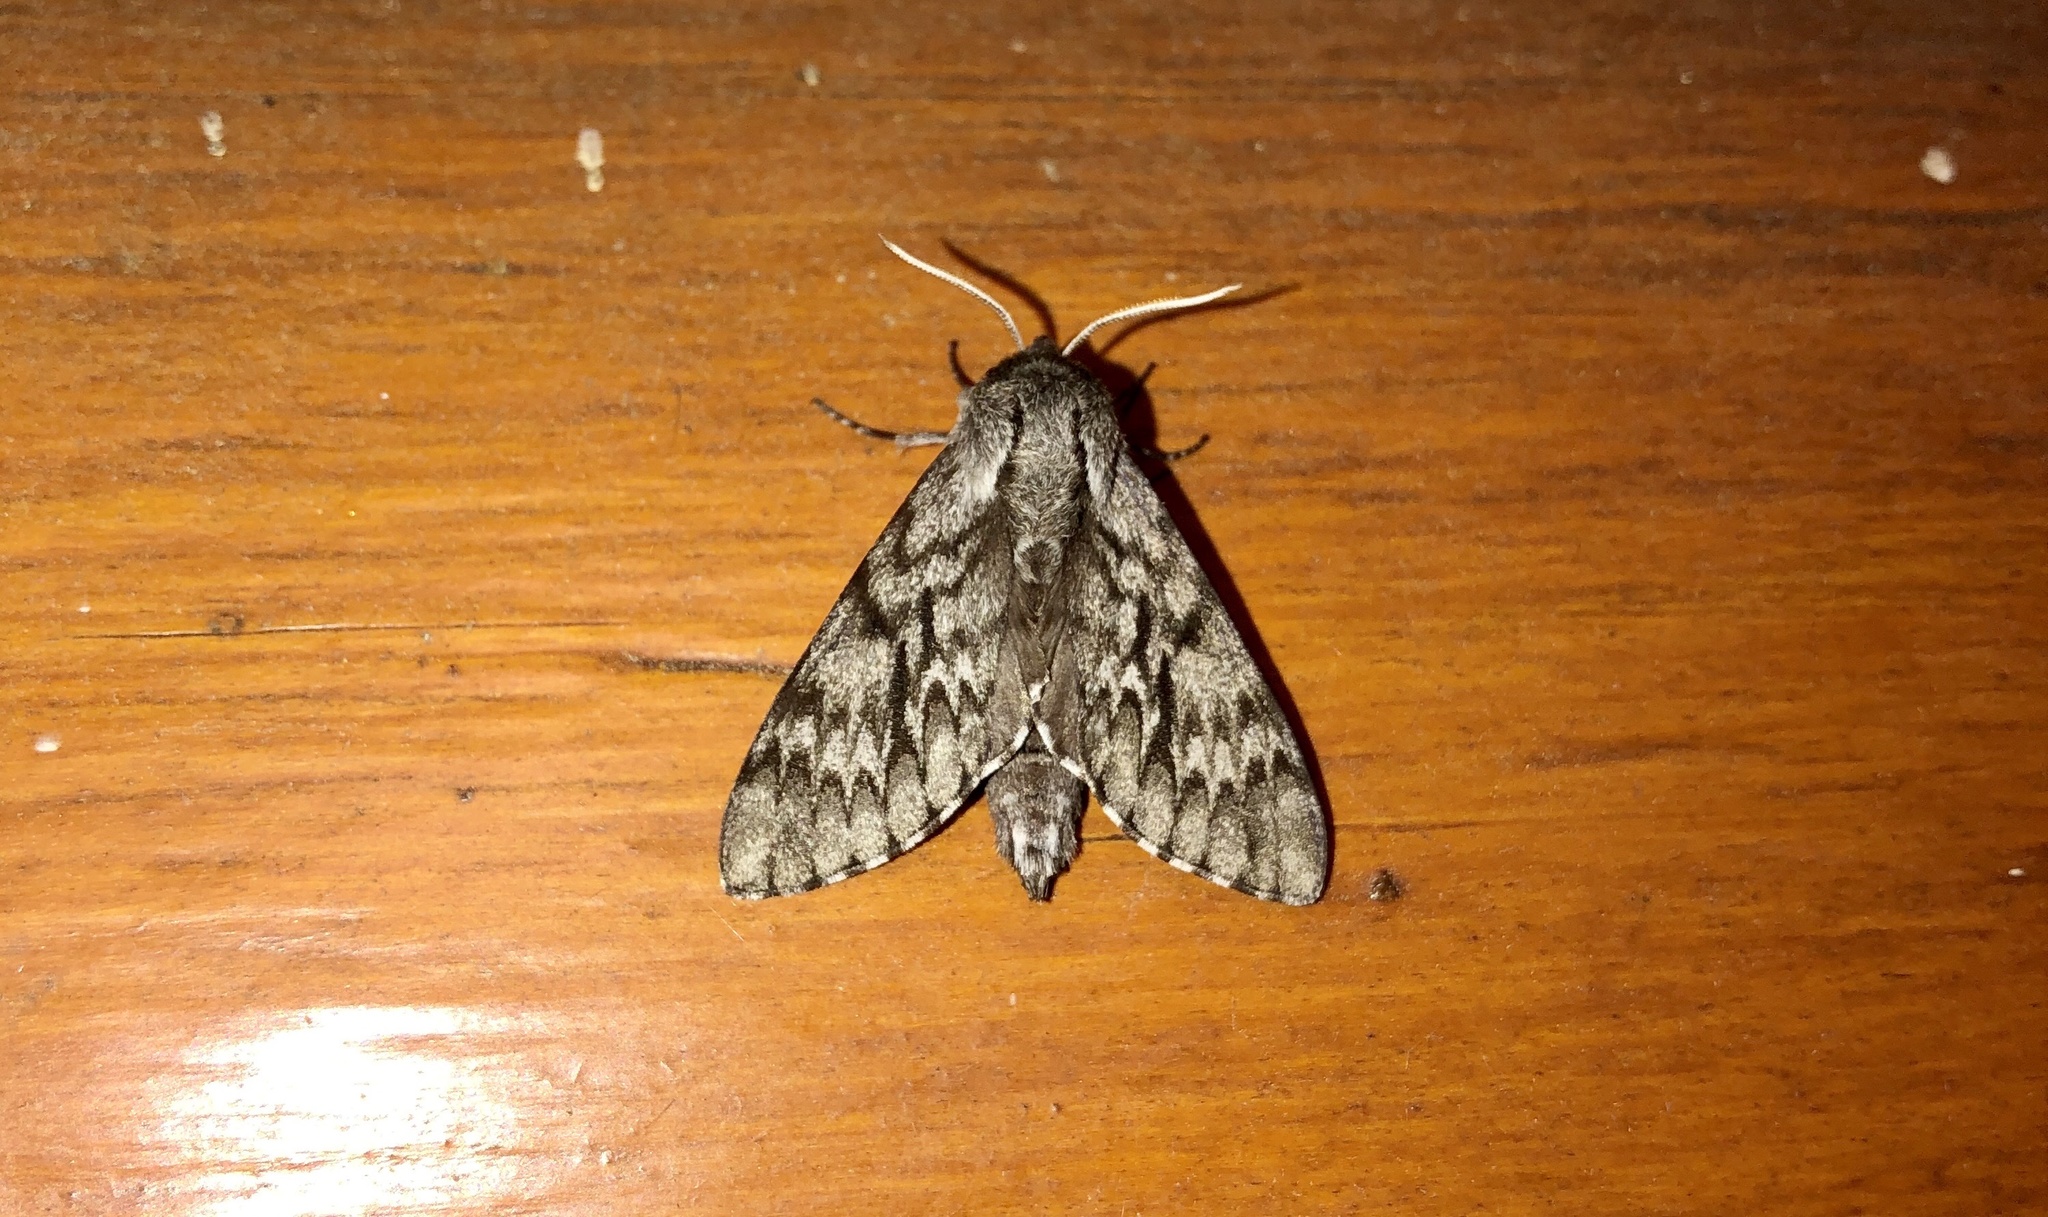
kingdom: Animalia
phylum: Arthropoda
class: Insecta
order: Lepidoptera
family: Sphingidae
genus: Lapara
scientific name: Lapara bombycoides
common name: Northern pine sphinx
